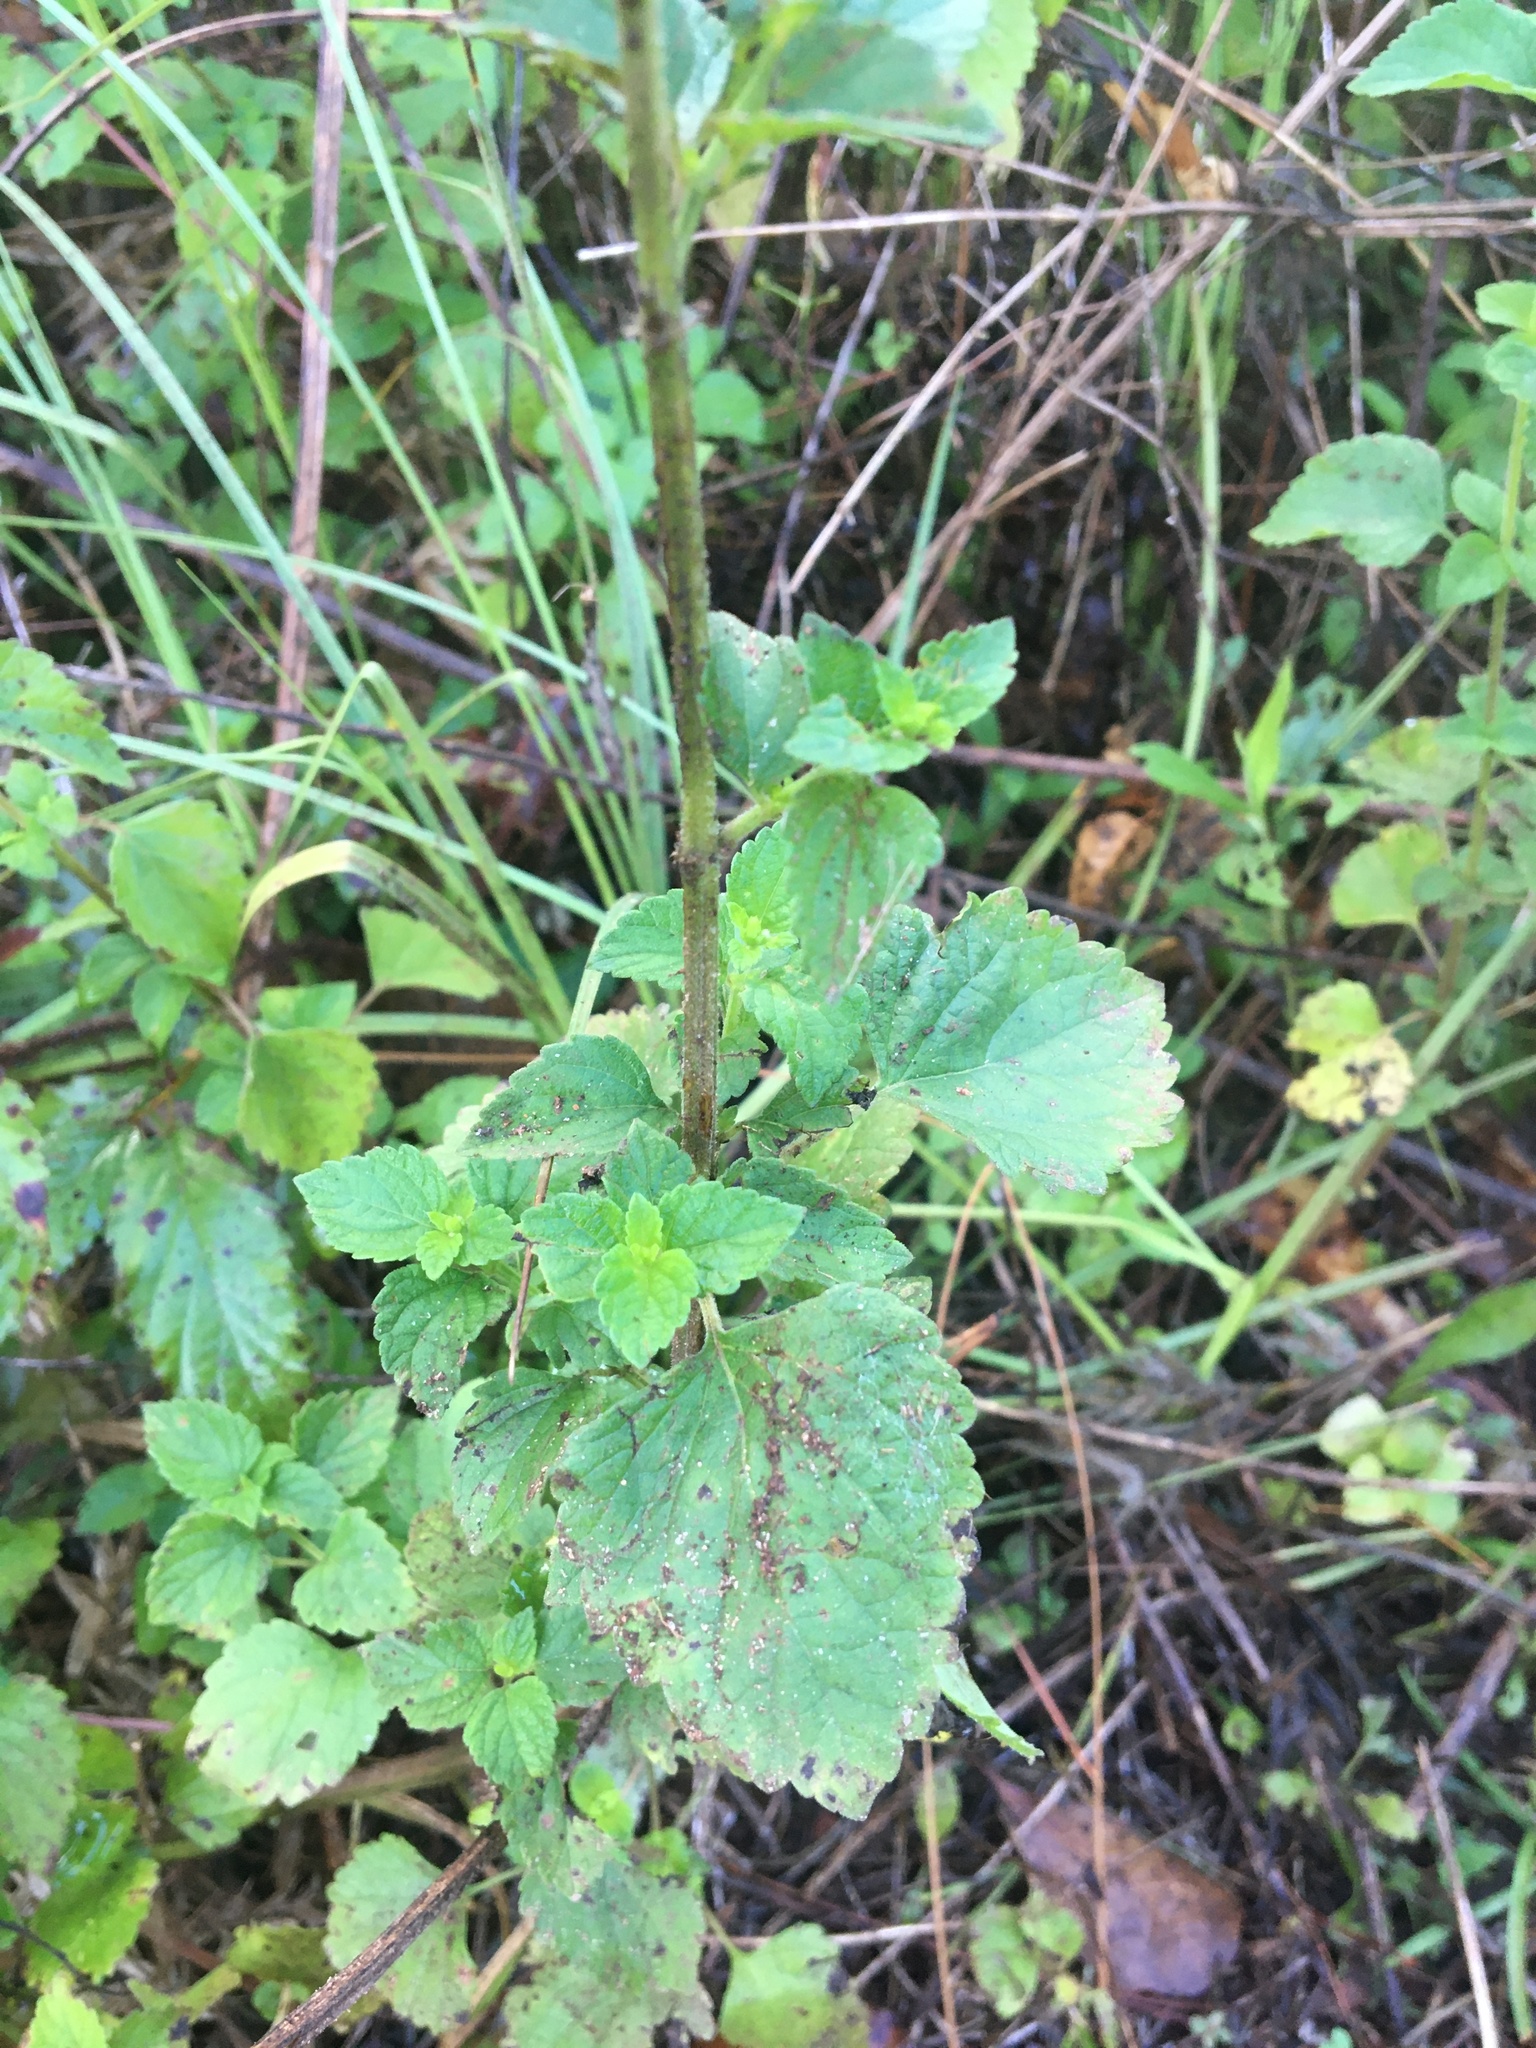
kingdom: Plantae
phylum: Tracheophyta
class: Magnoliopsida
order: Lamiales
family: Lamiaceae
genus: Cantinoa
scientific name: Cantinoa mutabilis
